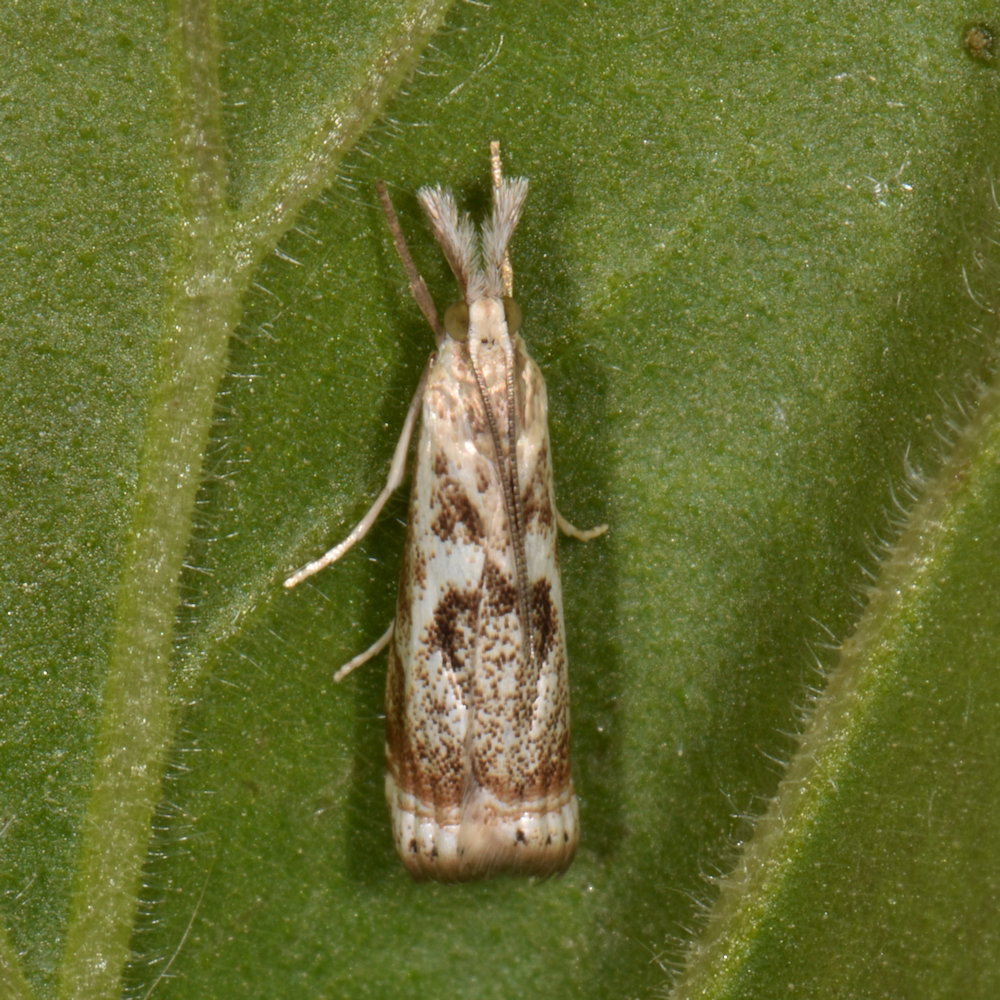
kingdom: Animalia
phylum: Arthropoda
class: Insecta
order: Lepidoptera
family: Crambidae
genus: Microcrambus
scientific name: Microcrambus elegans
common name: Elegant grass-veneer
